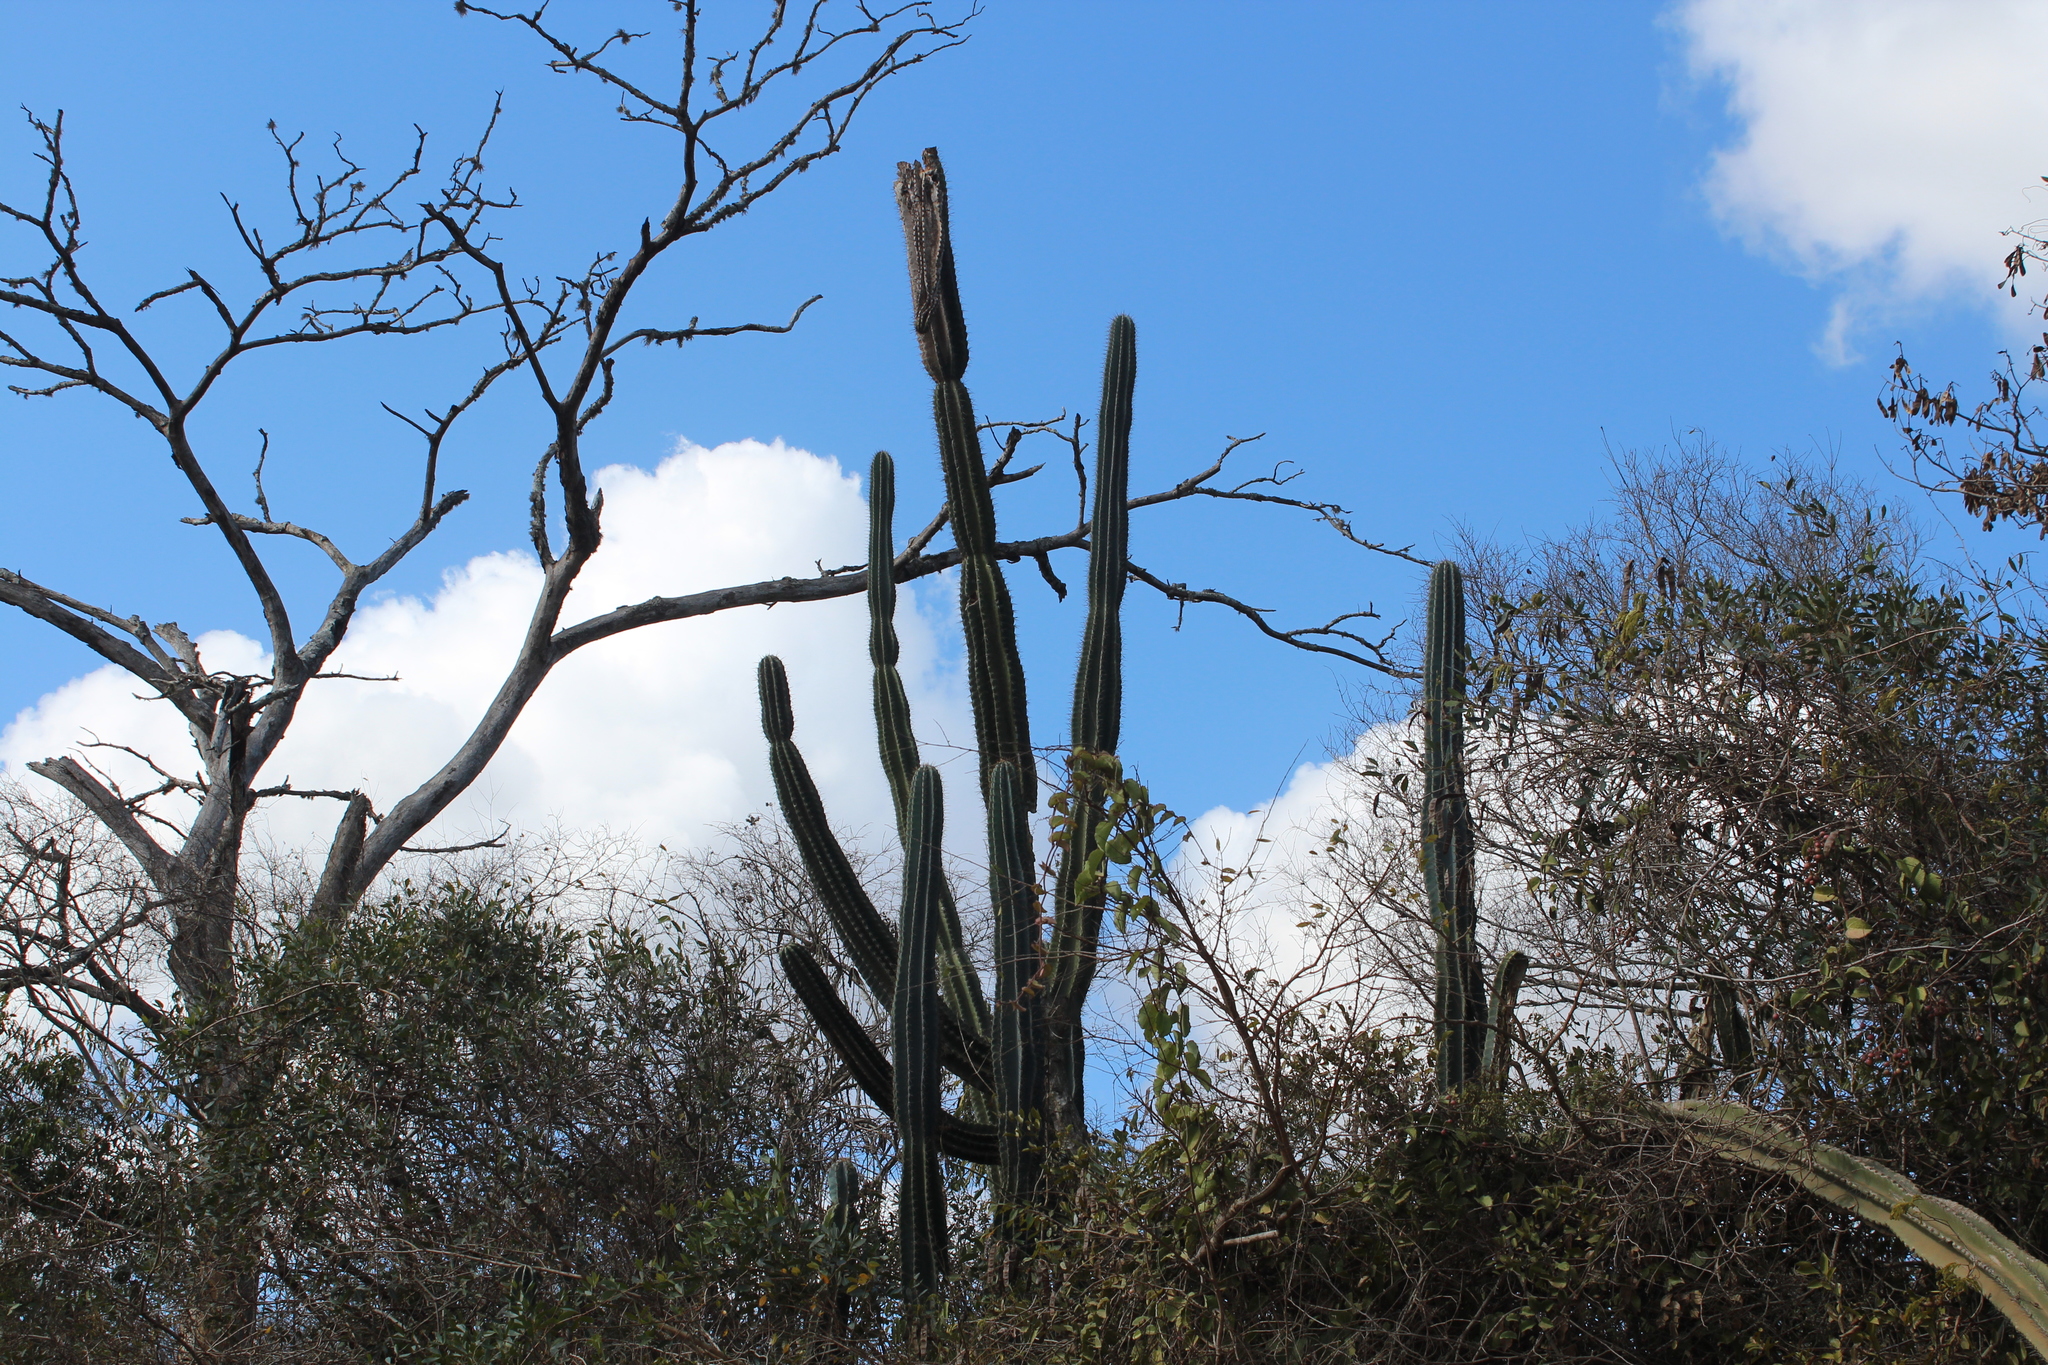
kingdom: Plantae
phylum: Tracheophyta
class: Magnoliopsida
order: Caryophyllales
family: Cactaceae
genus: Cereus
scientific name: Cereus jamacaru
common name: Queen-of-the-night
